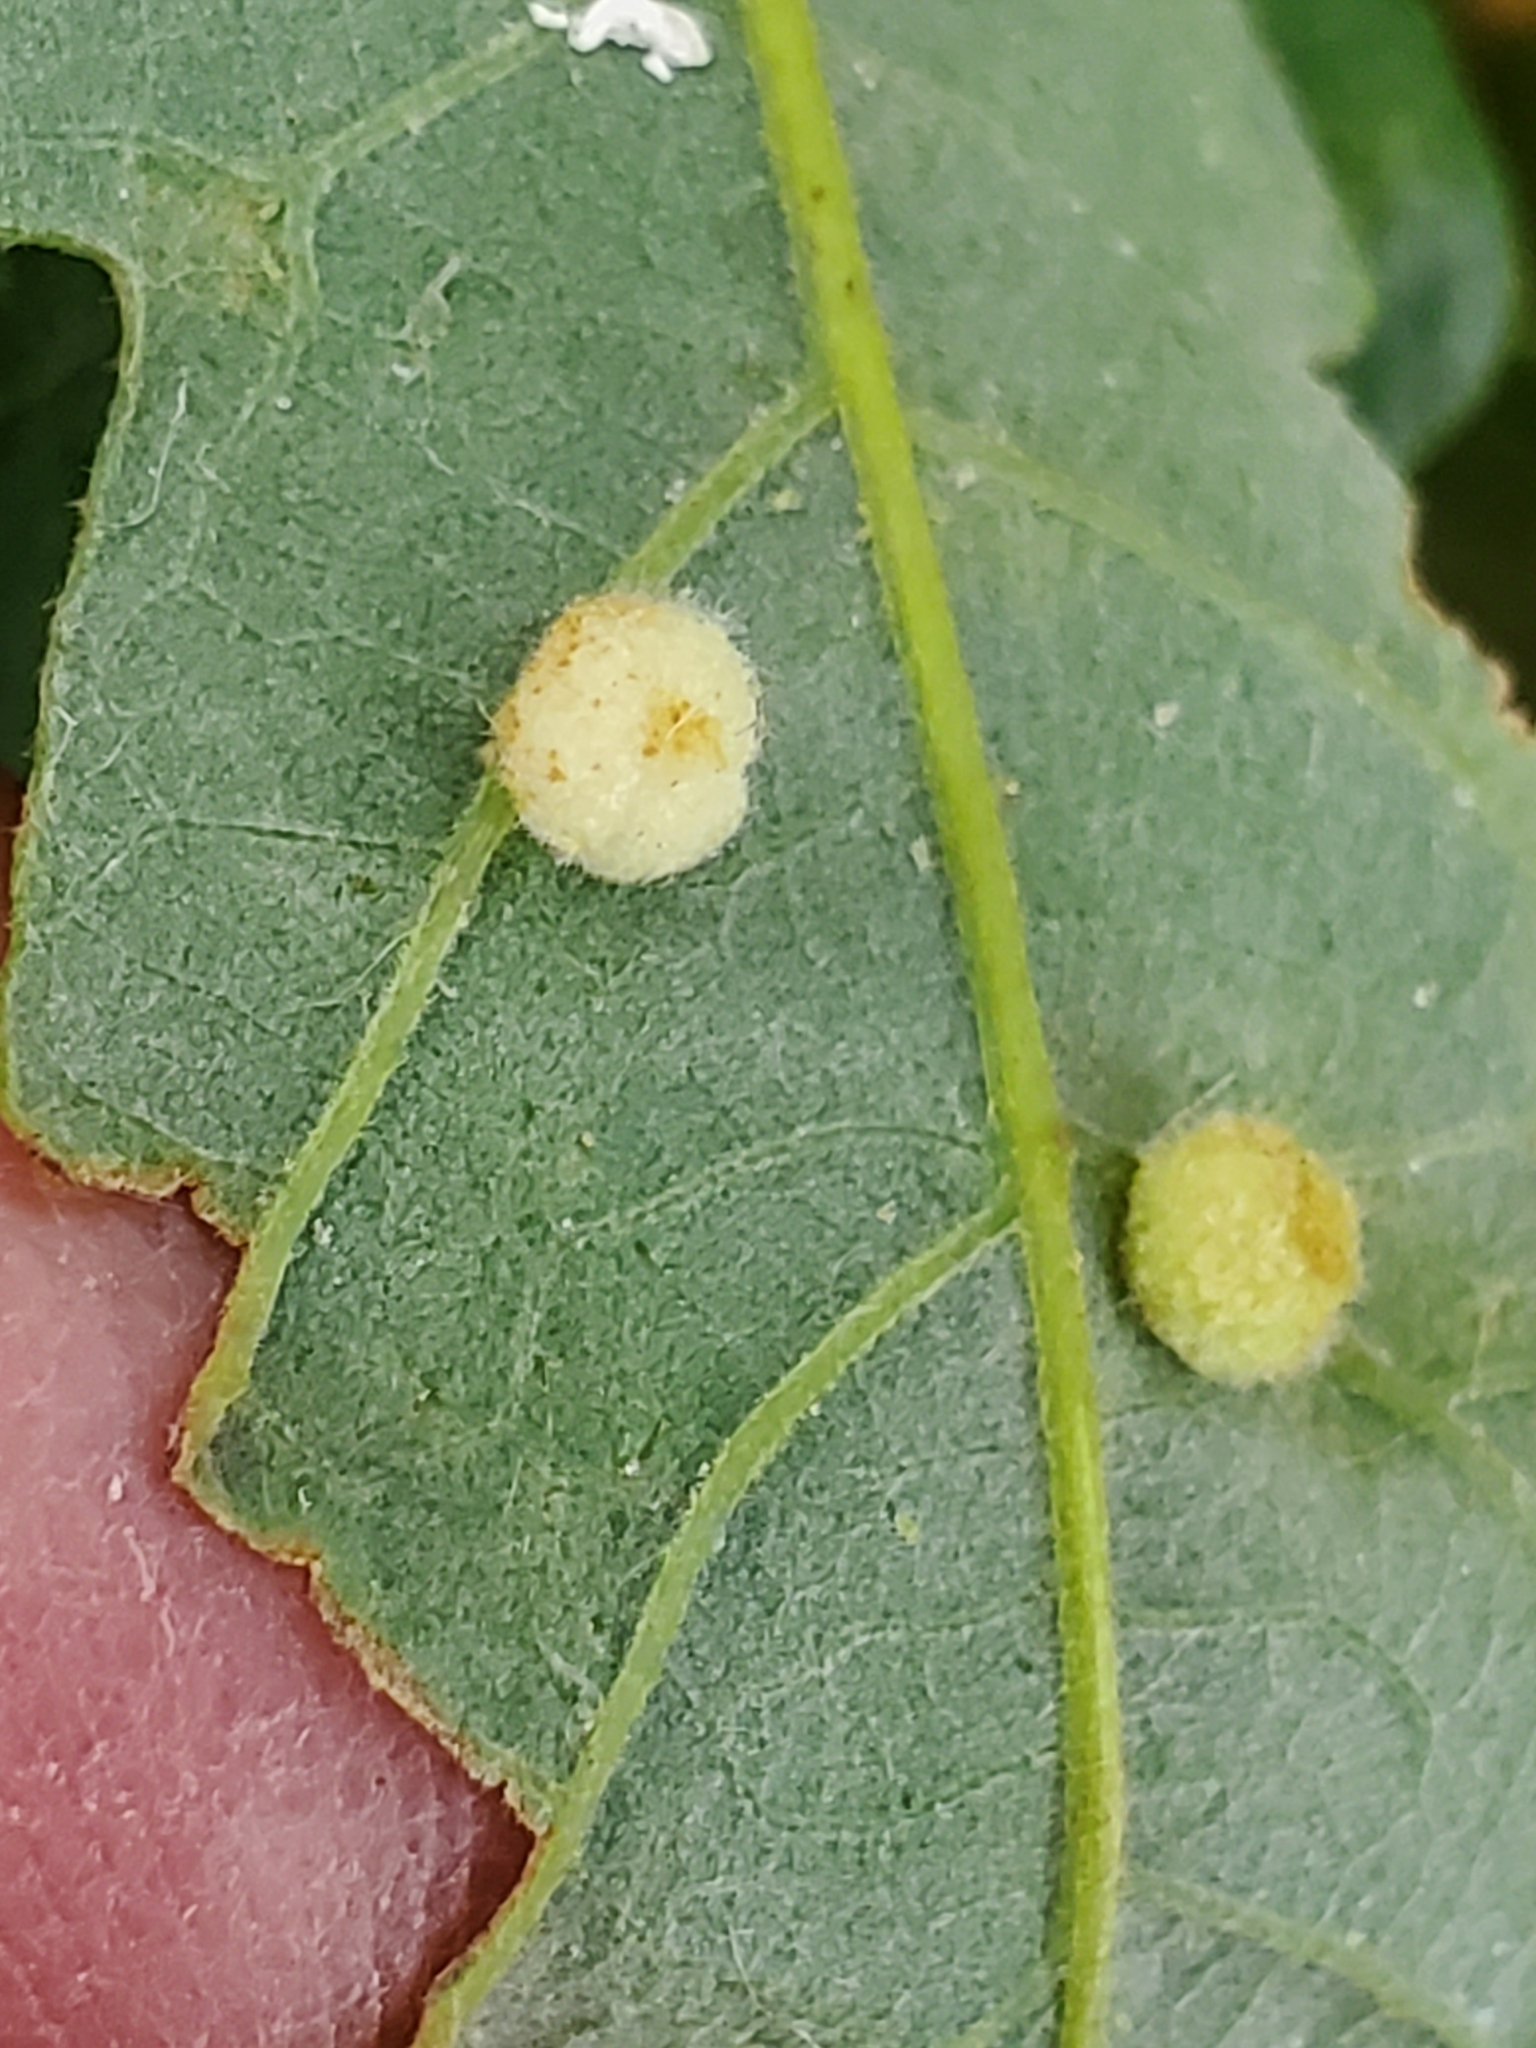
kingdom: Animalia
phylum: Arthropoda
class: Insecta
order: Hymenoptera
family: Cynipidae
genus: Philonix
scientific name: Philonix fulvicollis
